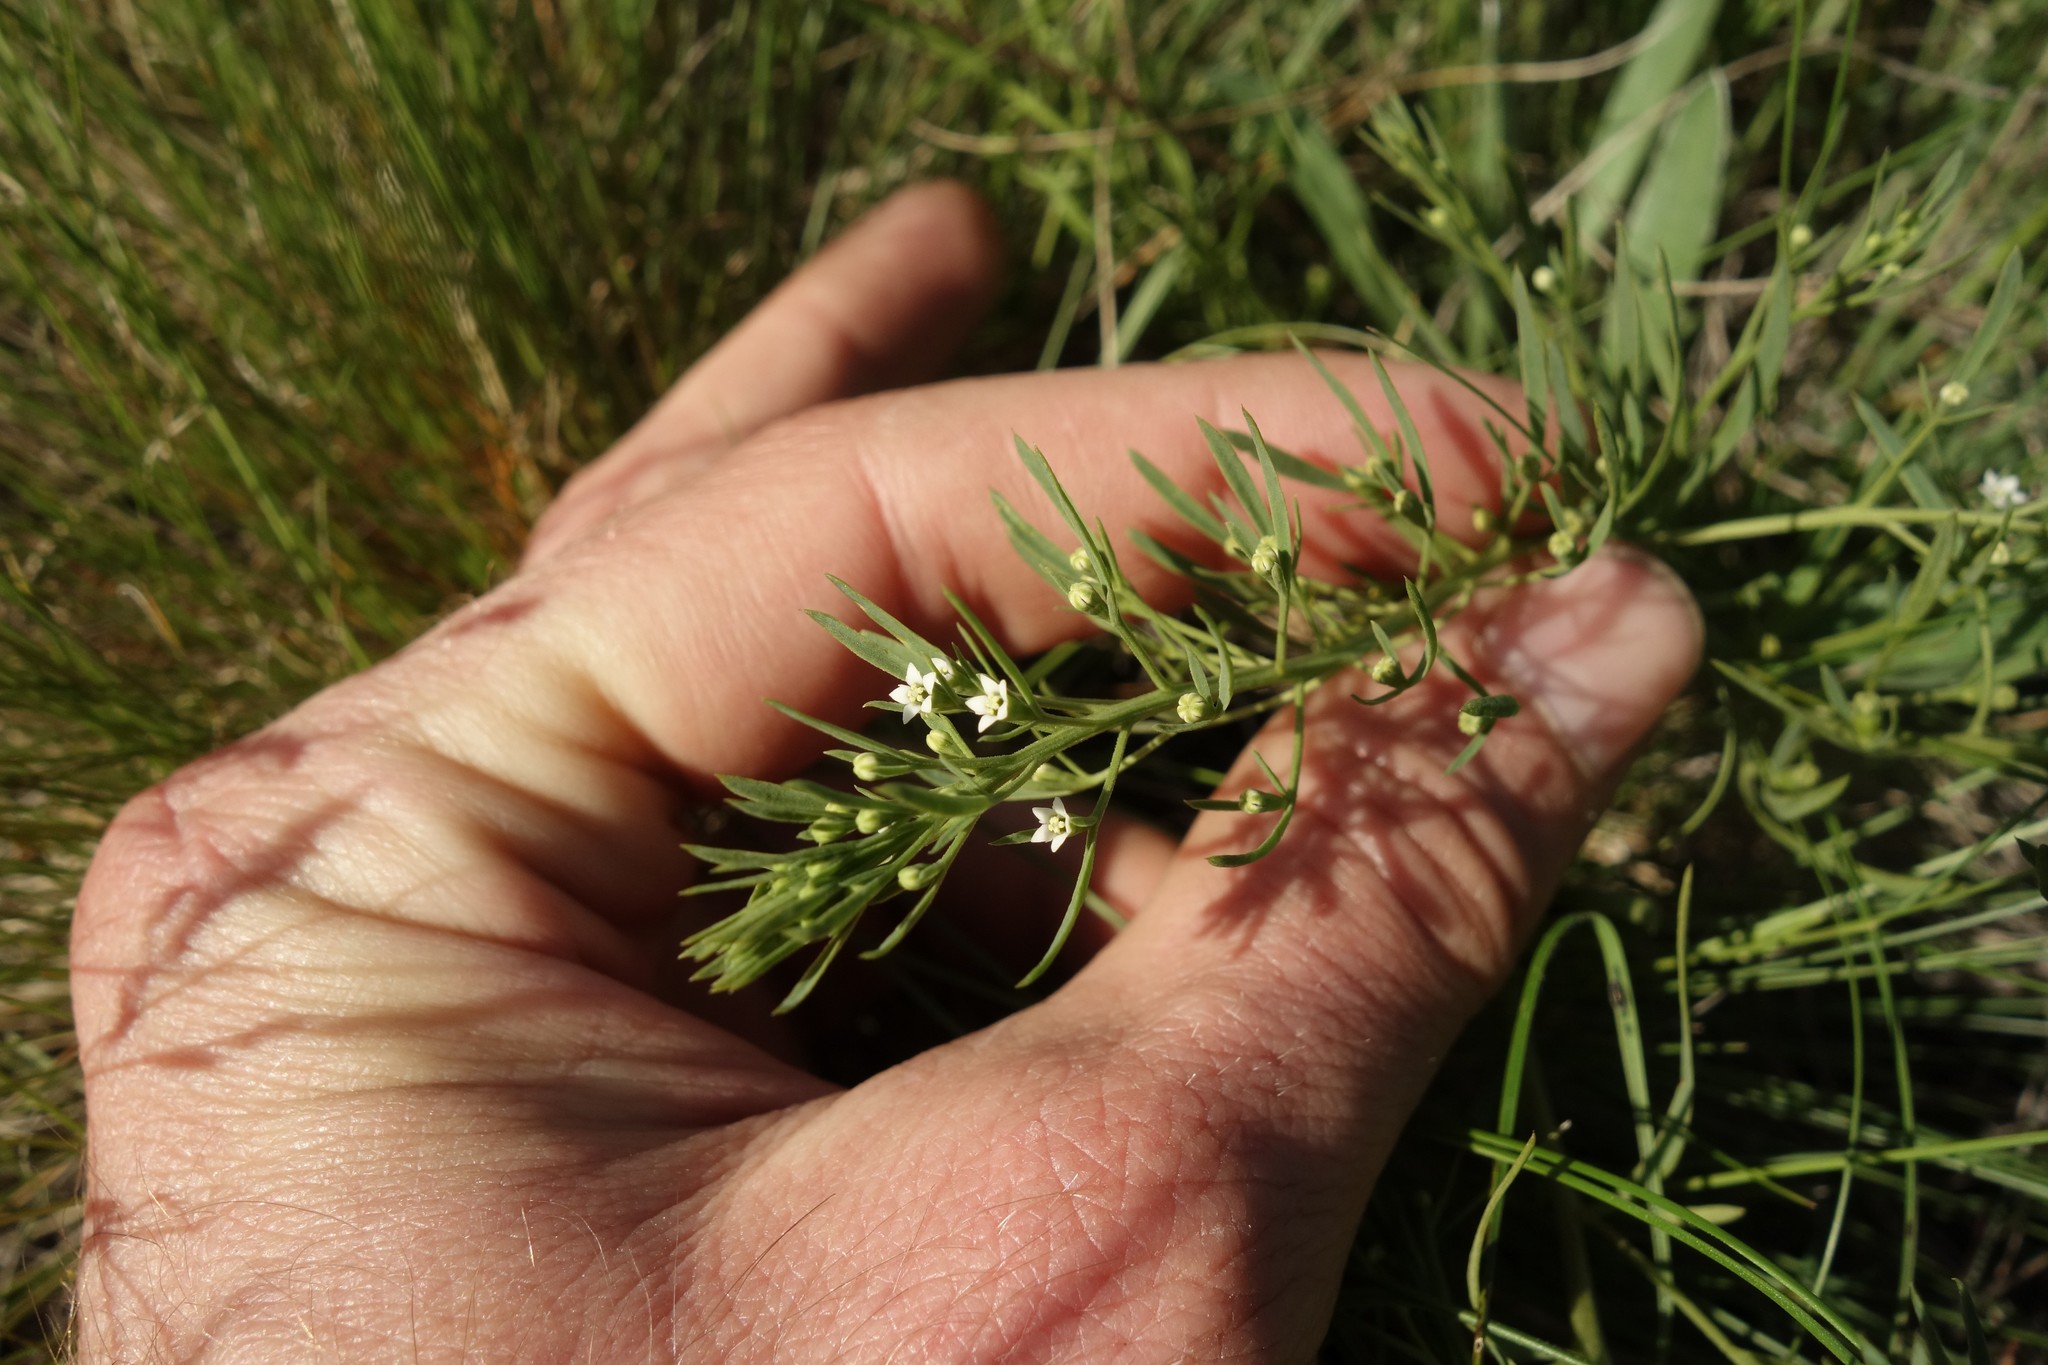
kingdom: Plantae
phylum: Tracheophyta
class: Magnoliopsida
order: Santalales
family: Thesiaceae
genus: Thesium
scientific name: Thesium ramosum
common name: Field thesium
